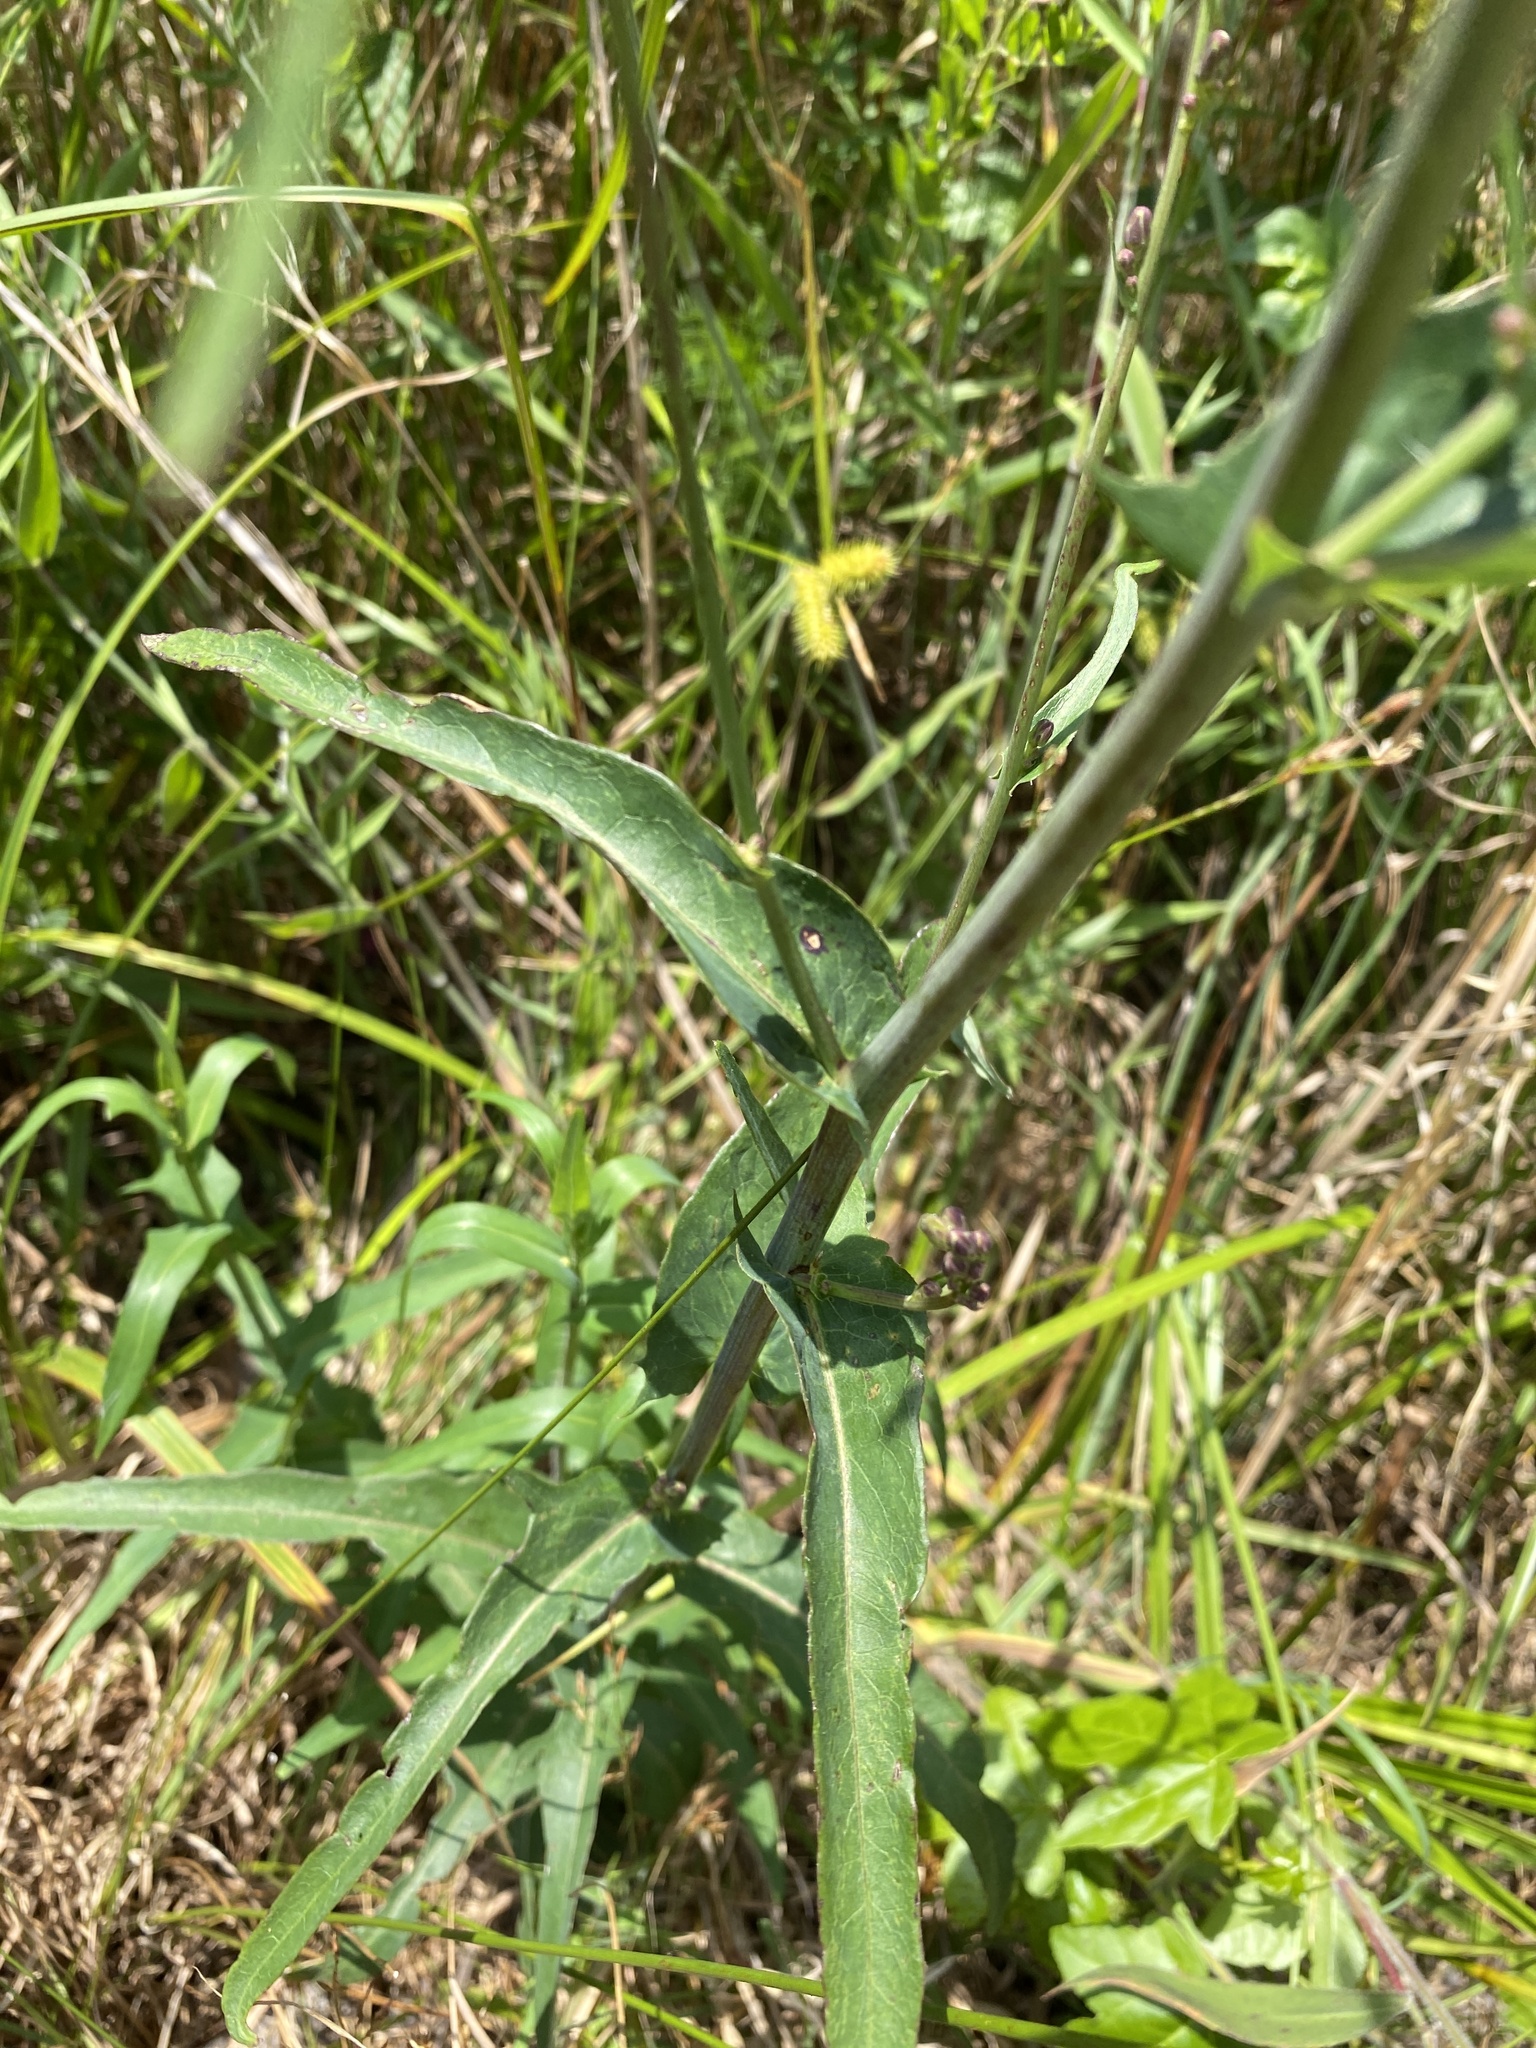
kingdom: Plantae
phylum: Tracheophyta
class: Magnoliopsida
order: Asterales
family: Asteraceae
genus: Lactuca
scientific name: Lactuca canadensis
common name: Canada lettuce
